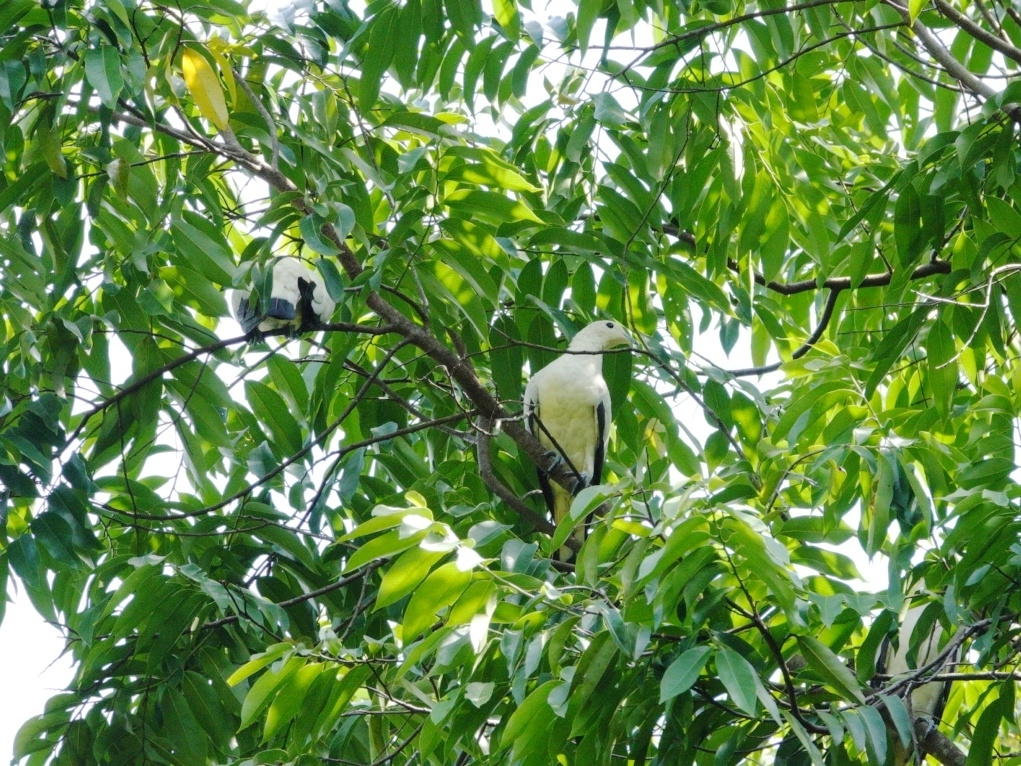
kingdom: Animalia
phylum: Chordata
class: Aves
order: Columbiformes
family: Columbidae
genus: Ducula
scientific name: Ducula bicolor
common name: Pied imperial pigeon
